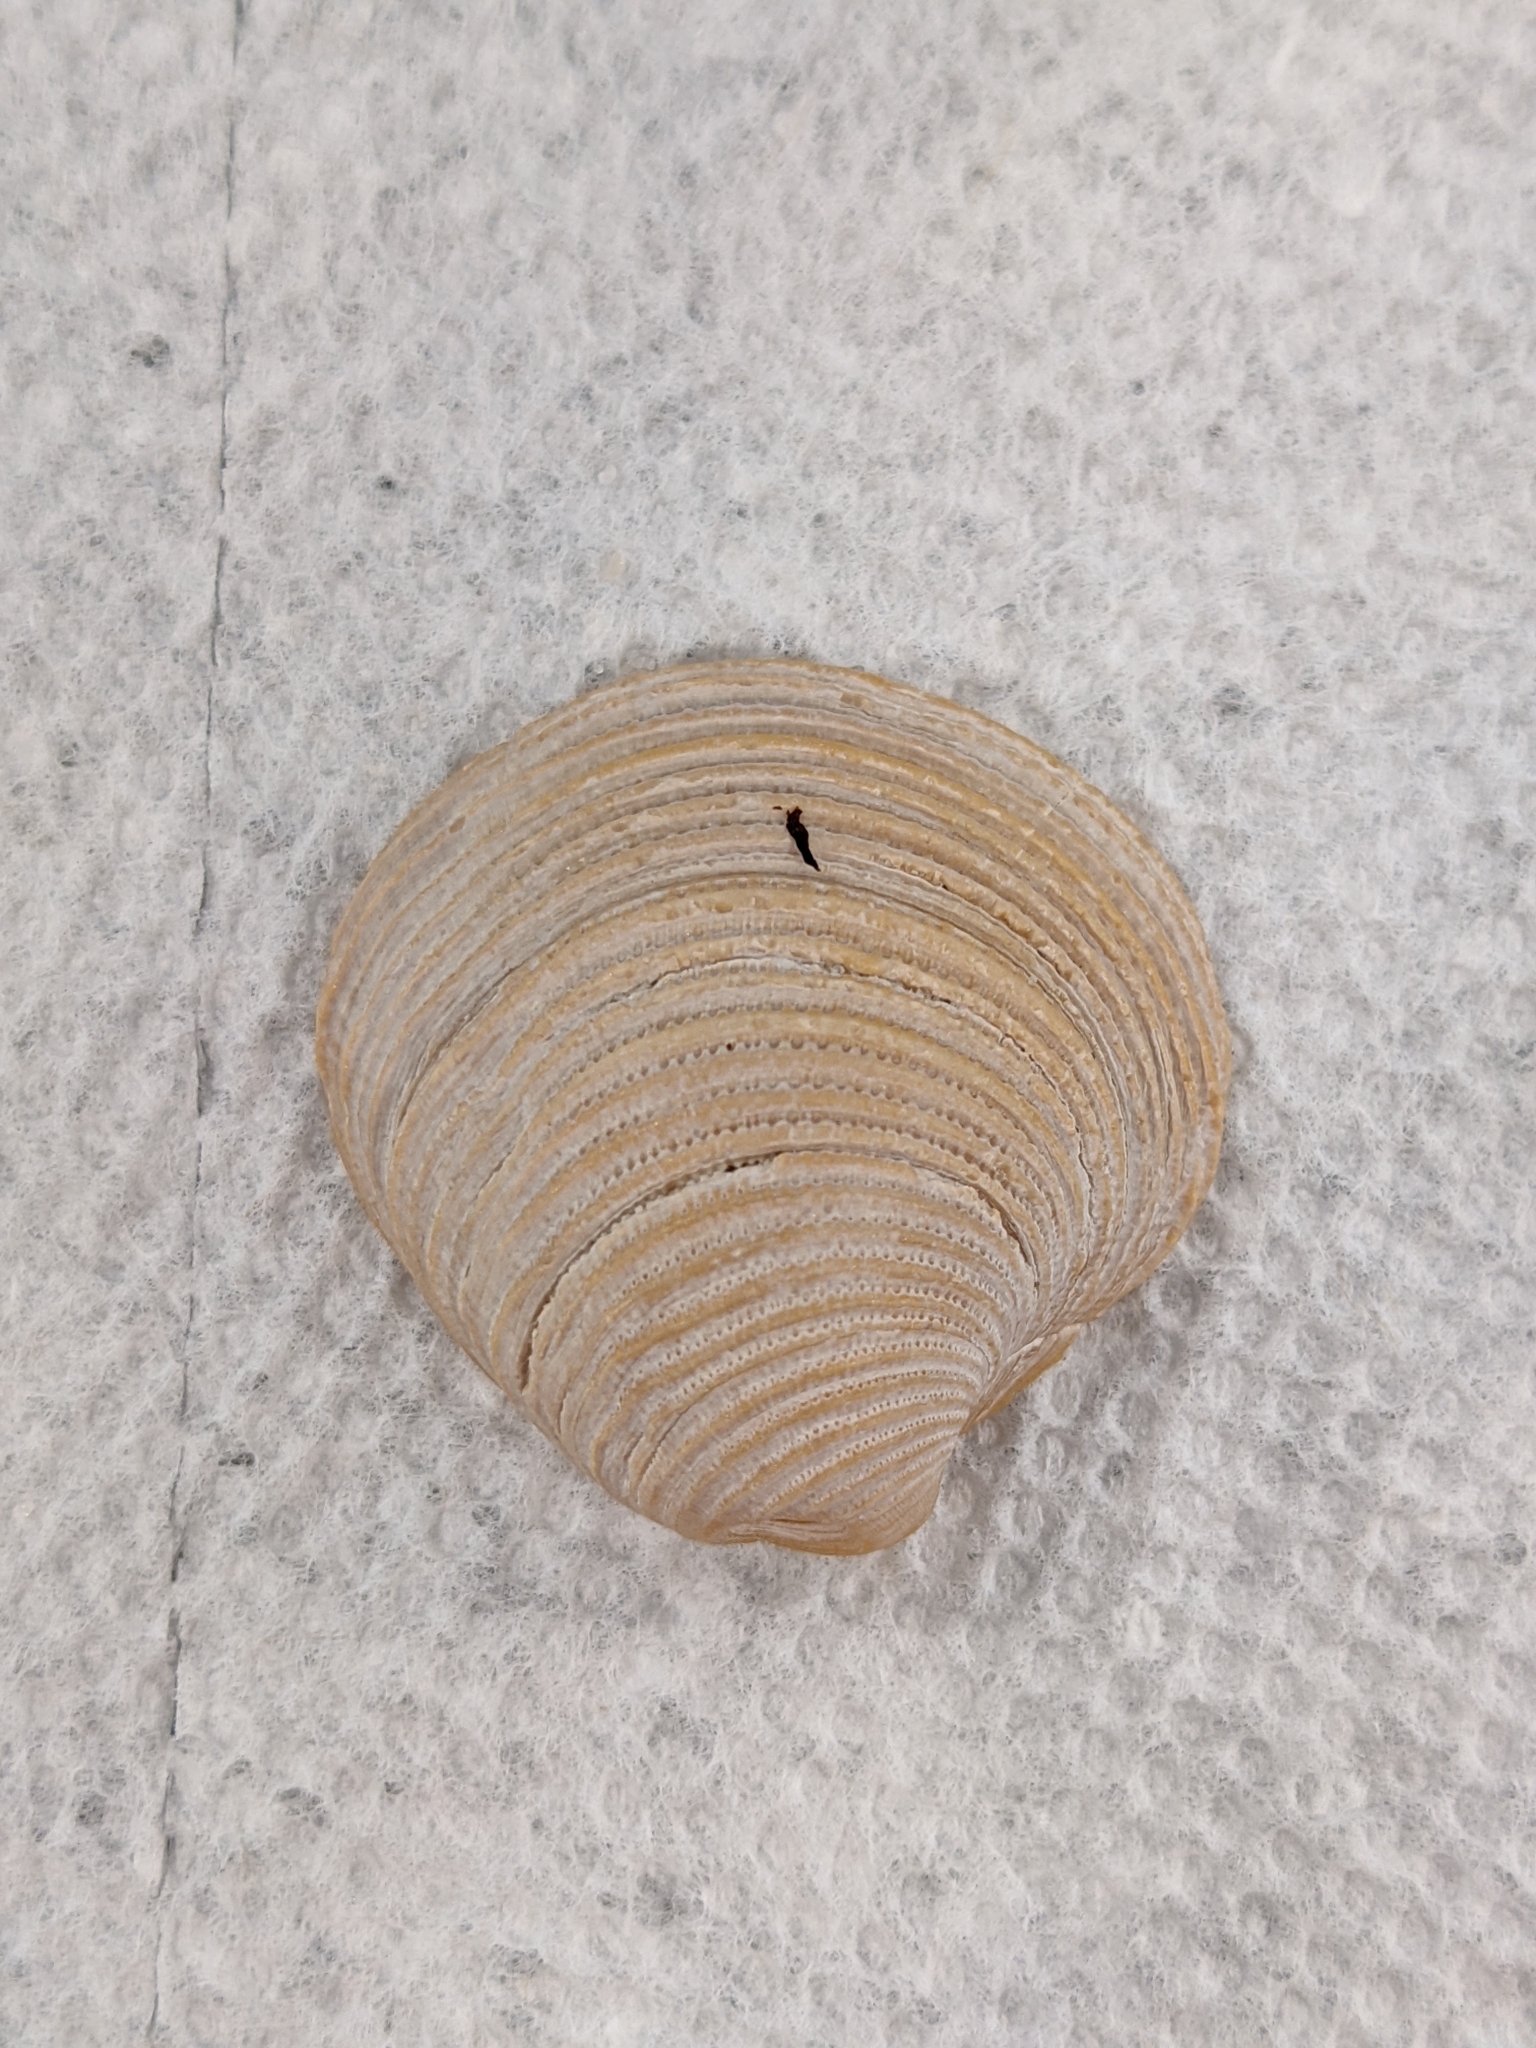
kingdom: Animalia
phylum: Mollusca
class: Bivalvia
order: Venerida
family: Veneridae
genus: Chionopsis
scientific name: Chionopsis intapurpurea
